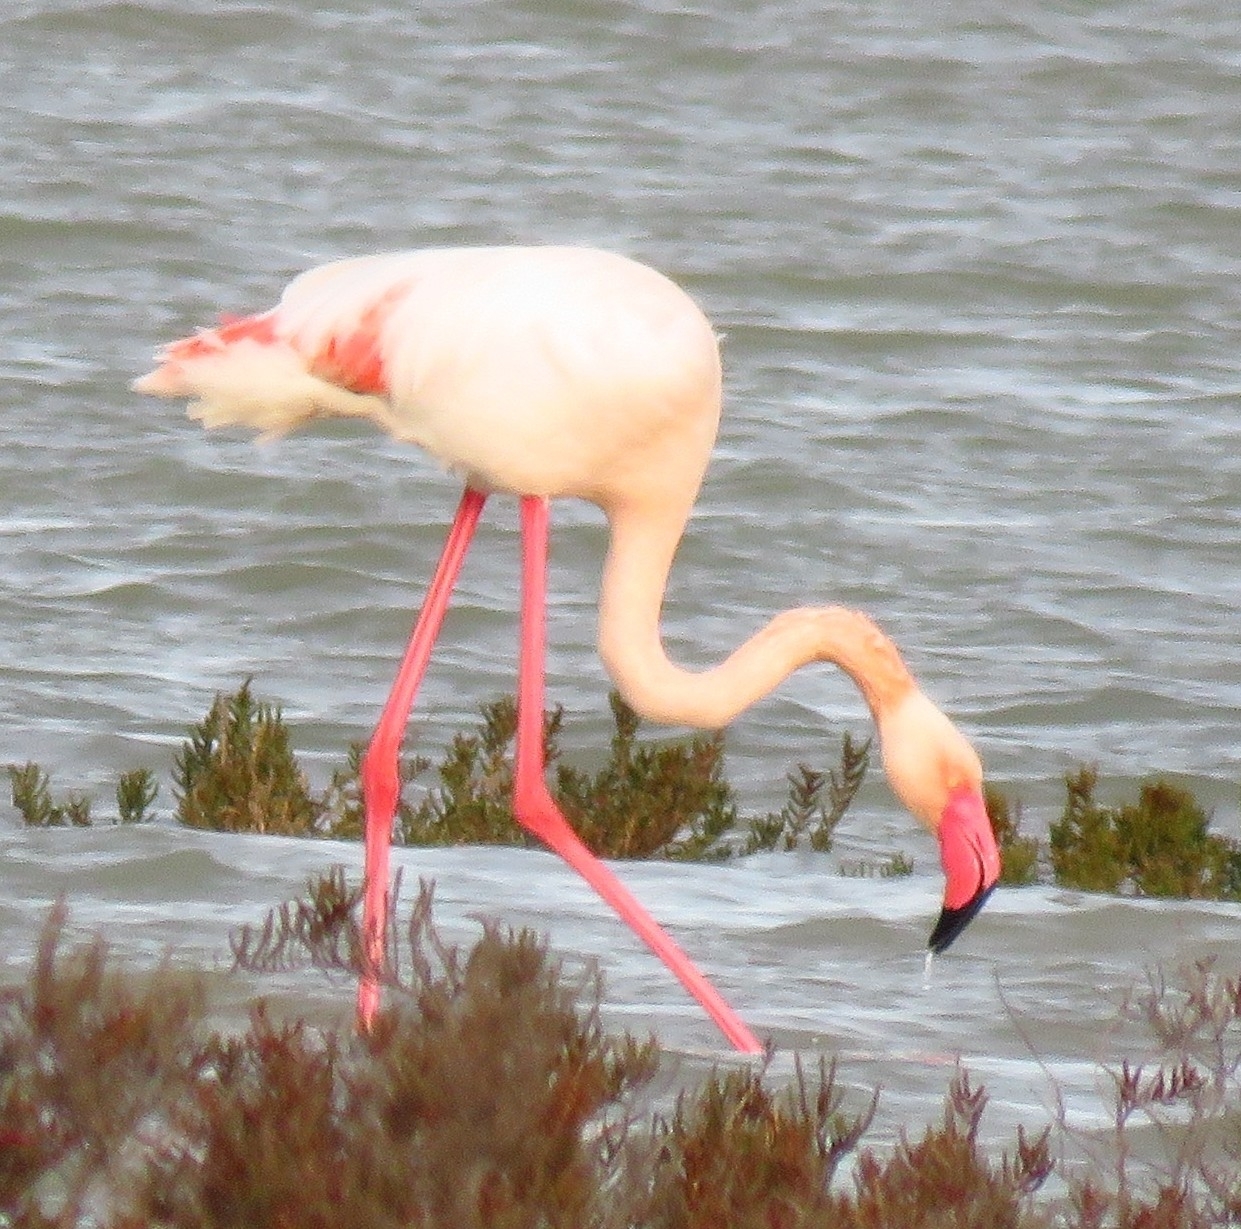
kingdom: Animalia
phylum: Chordata
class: Aves
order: Phoenicopteriformes
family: Phoenicopteridae
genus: Phoenicopterus
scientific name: Phoenicopterus roseus
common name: Greater flamingo
